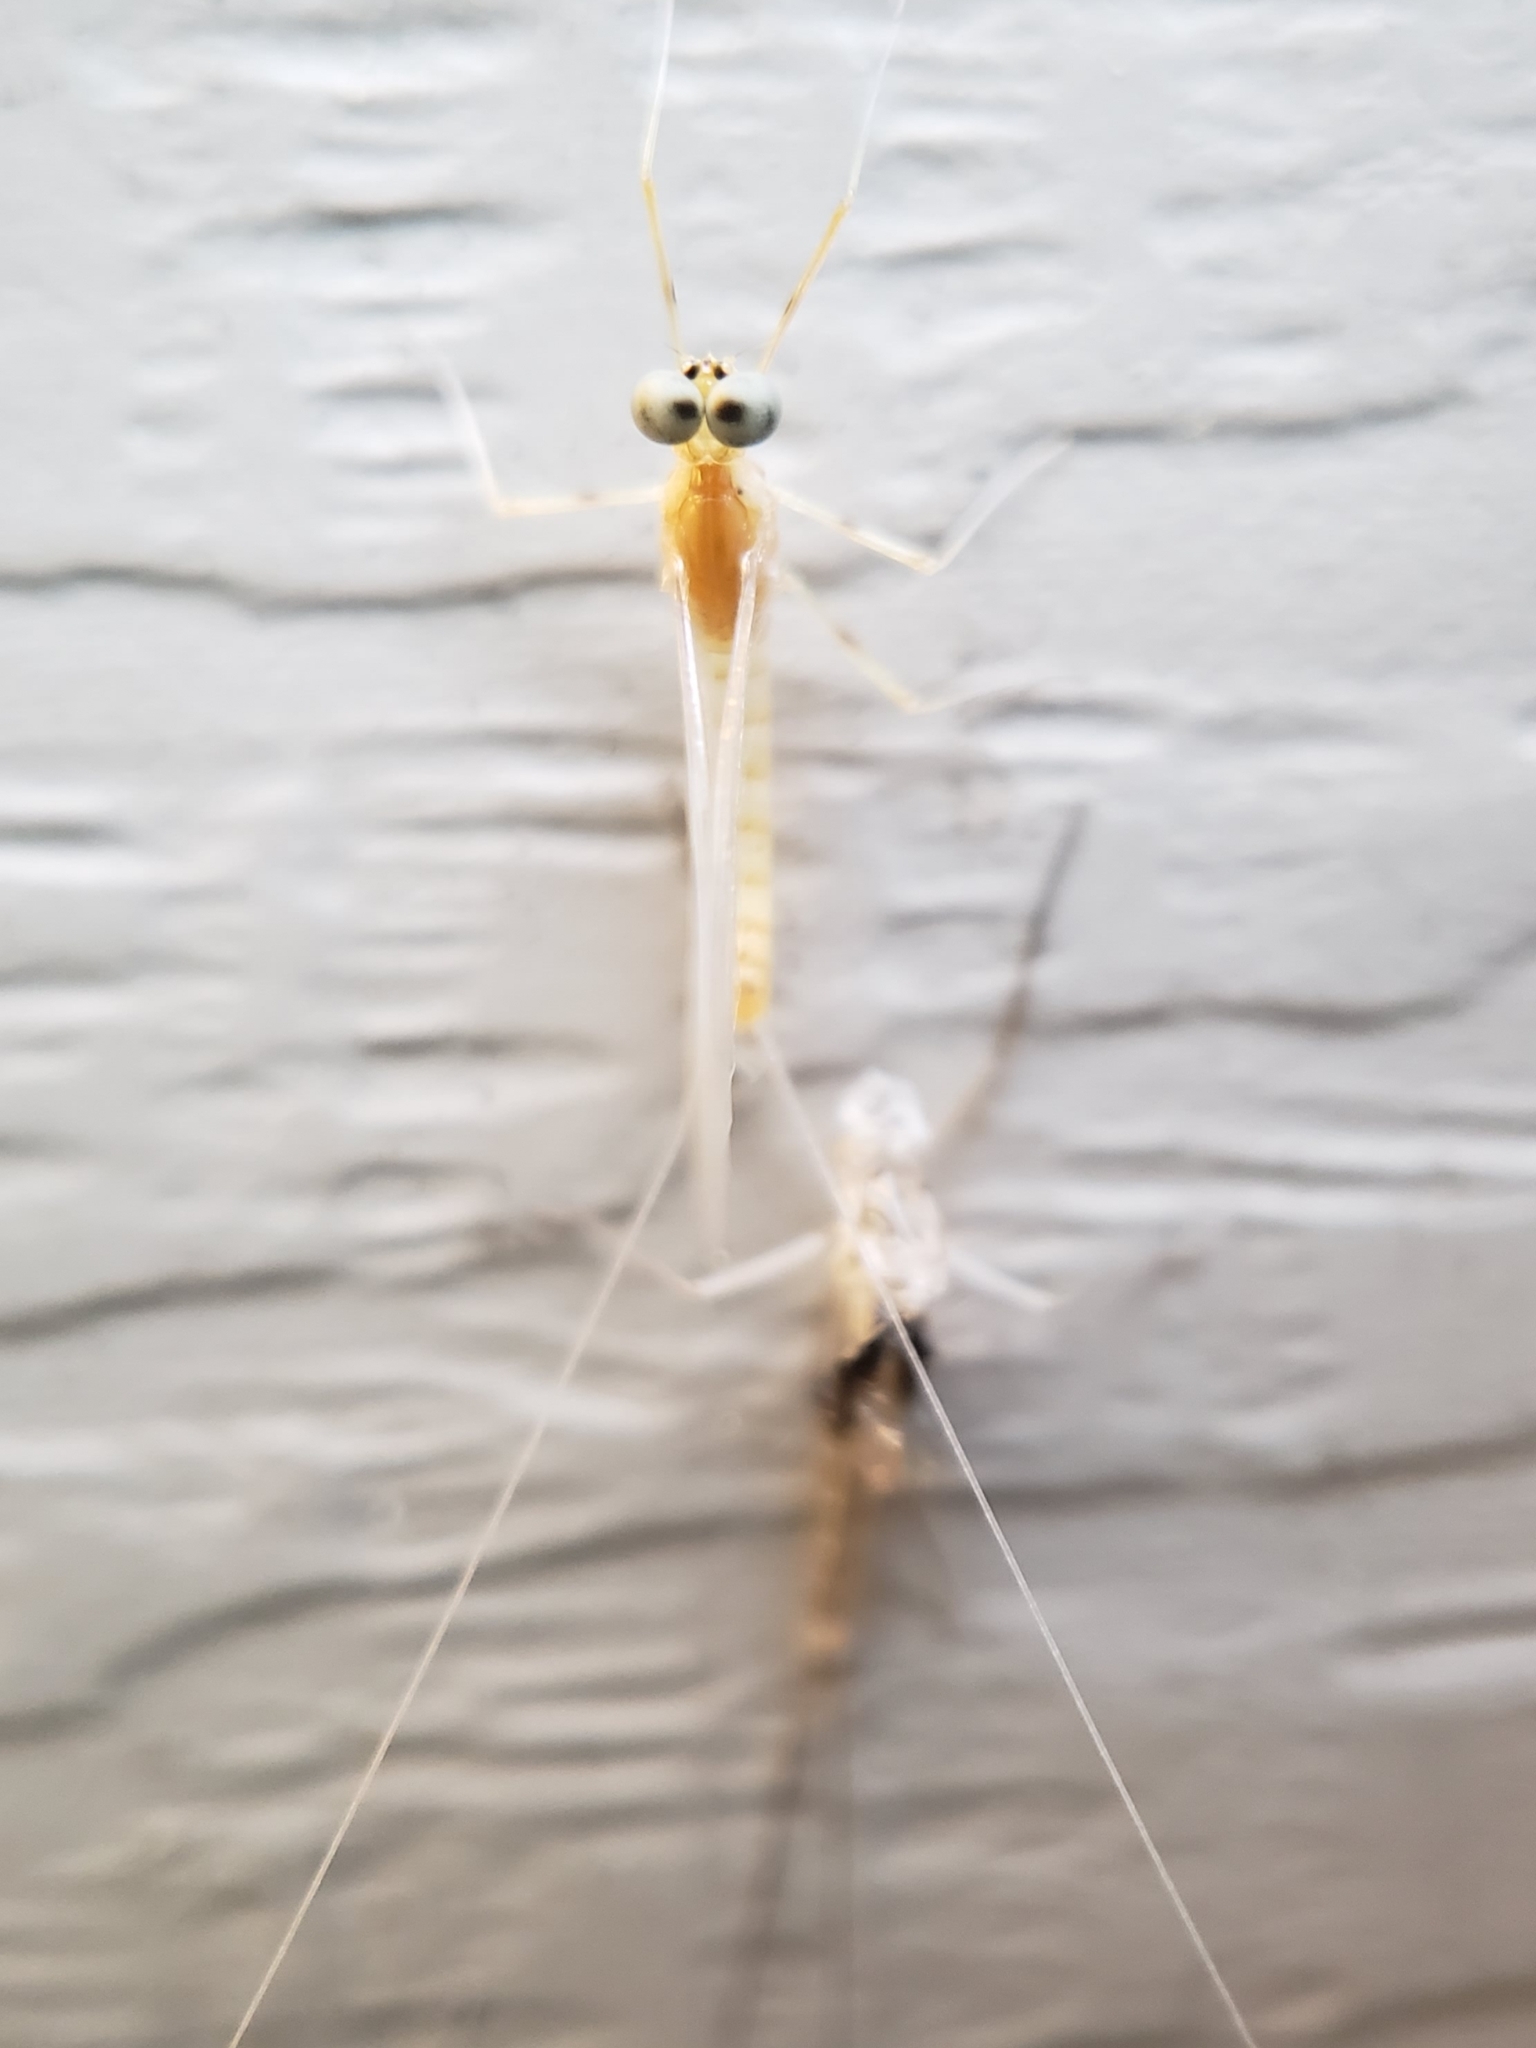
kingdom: Animalia
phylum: Arthropoda
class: Insecta
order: Ephemeroptera
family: Heptageniidae
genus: Epeorus
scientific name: Epeorus vitreus
